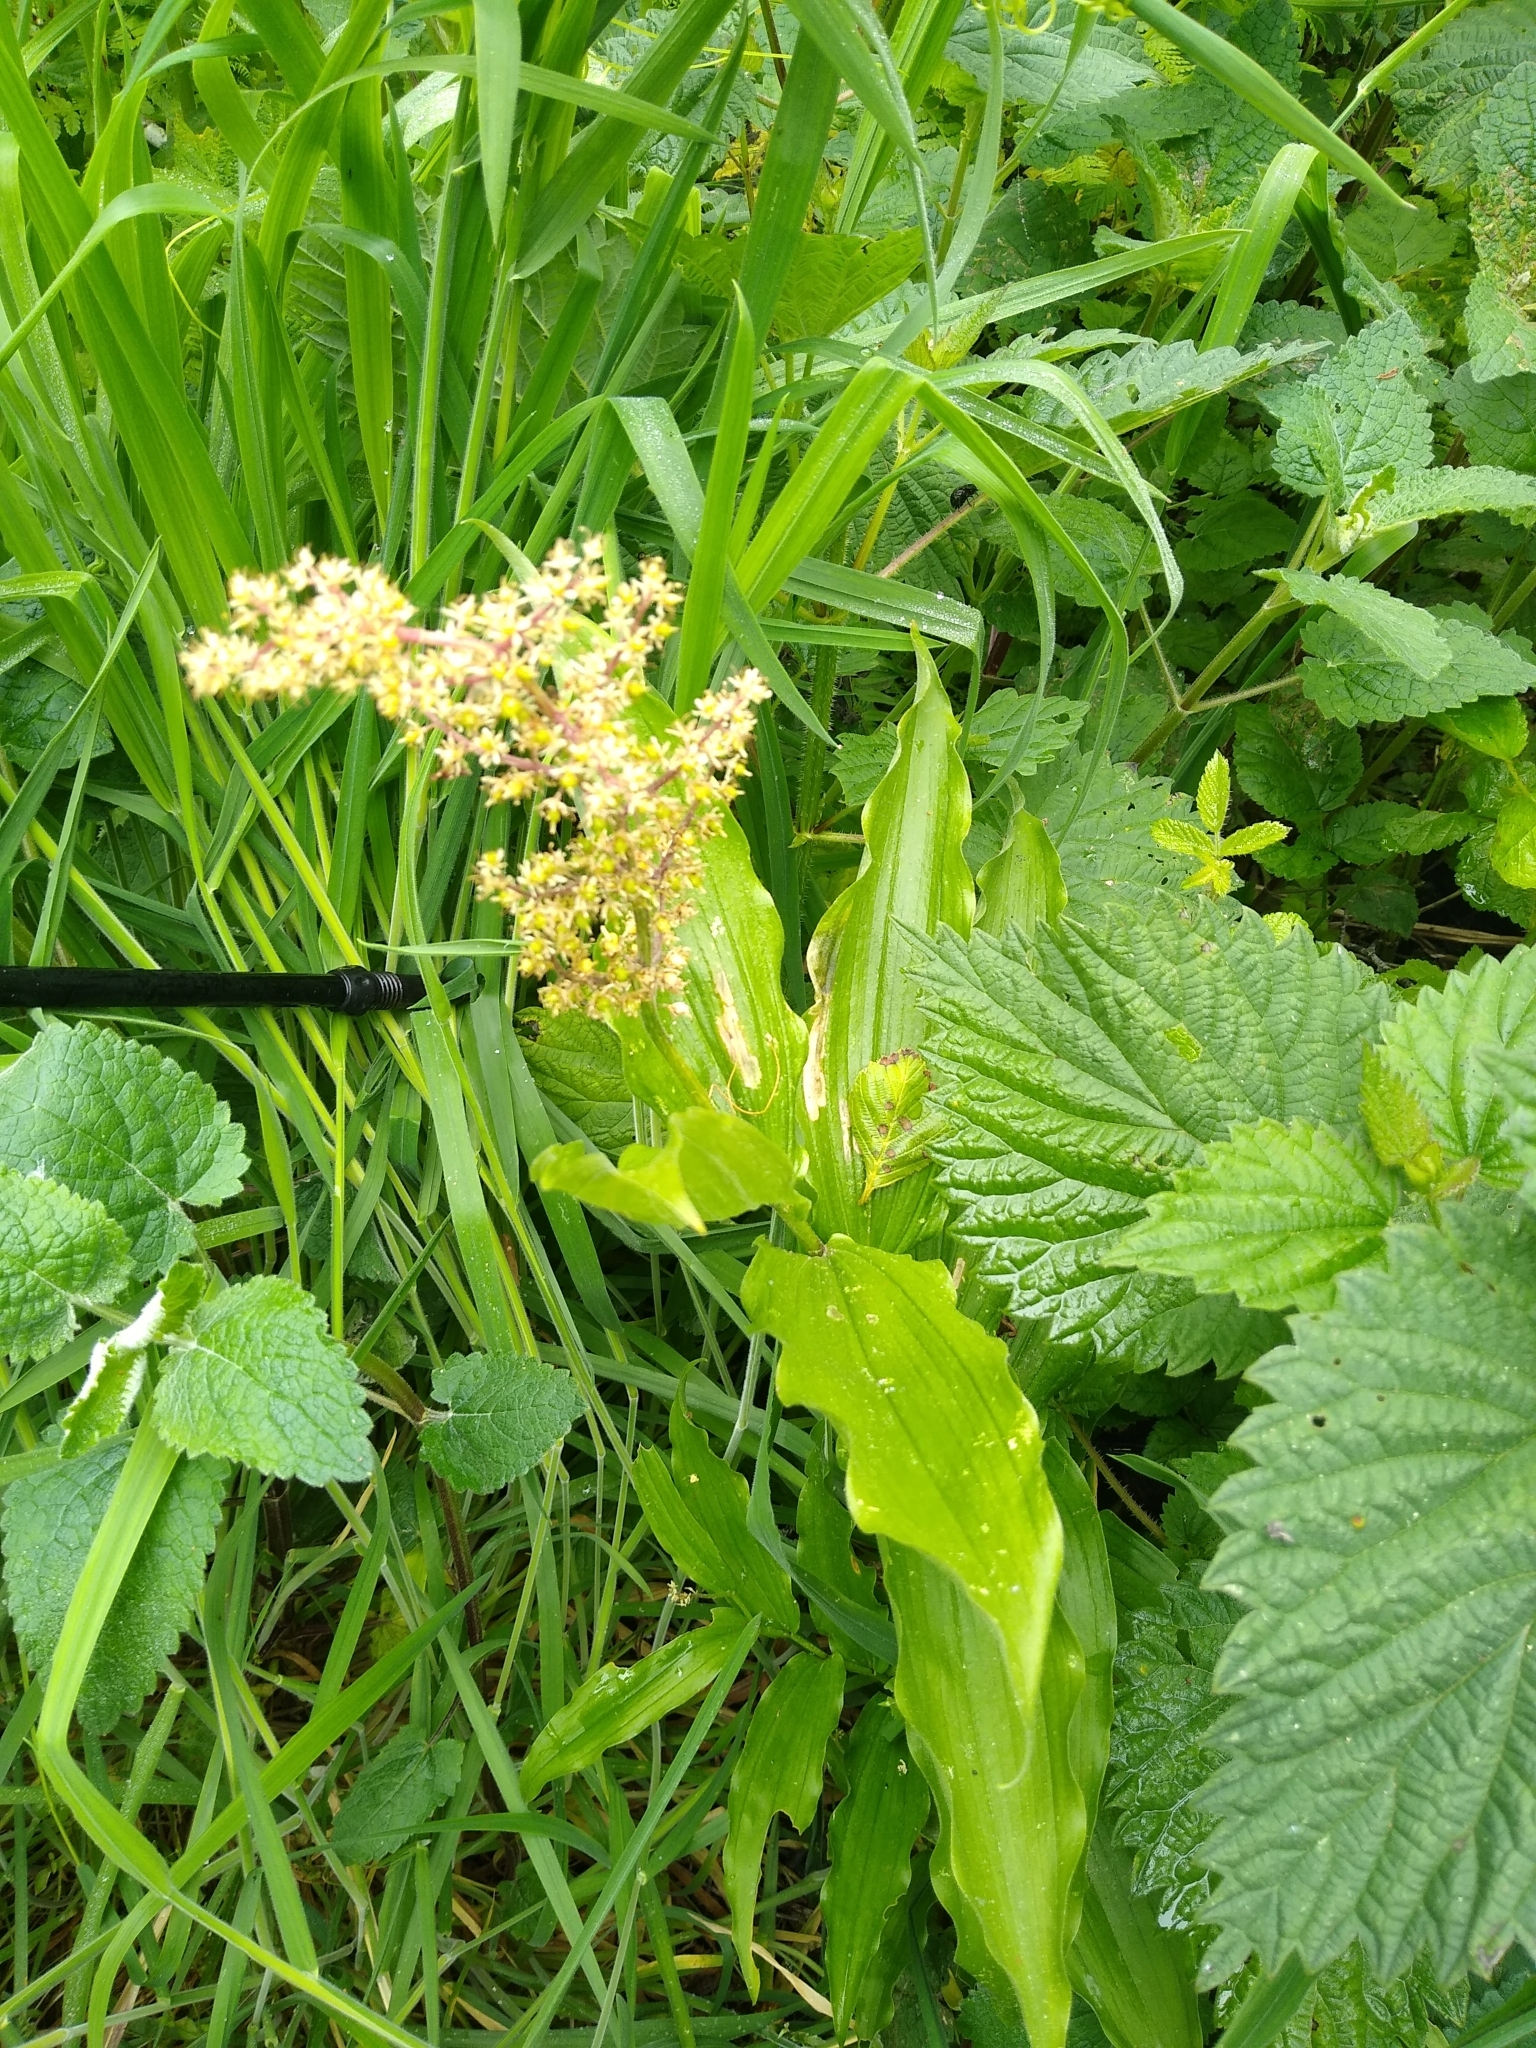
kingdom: Plantae
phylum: Tracheophyta
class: Liliopsida
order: Asparagales
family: Asparagaceae
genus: Maianthemum
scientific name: Maianthemum racemosum
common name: False spikenard
